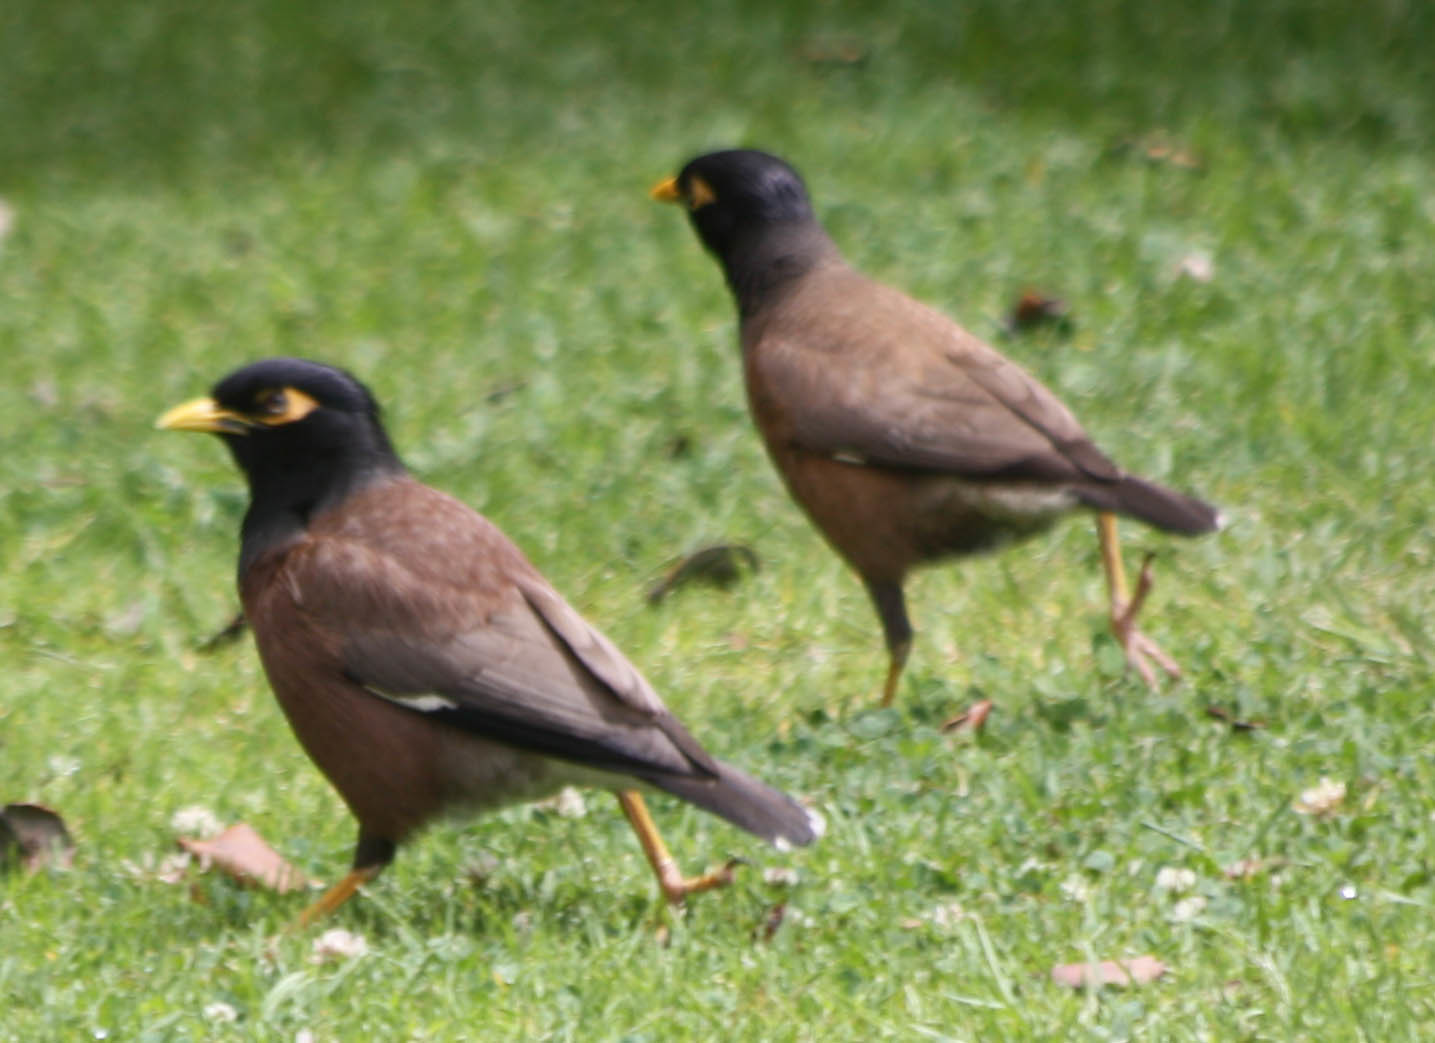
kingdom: Animalia
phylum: Chordata
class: Aves
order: Passeriformes
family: Sturnidae
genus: Acridotheres
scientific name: Acridotheres tristis
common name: Common myna
